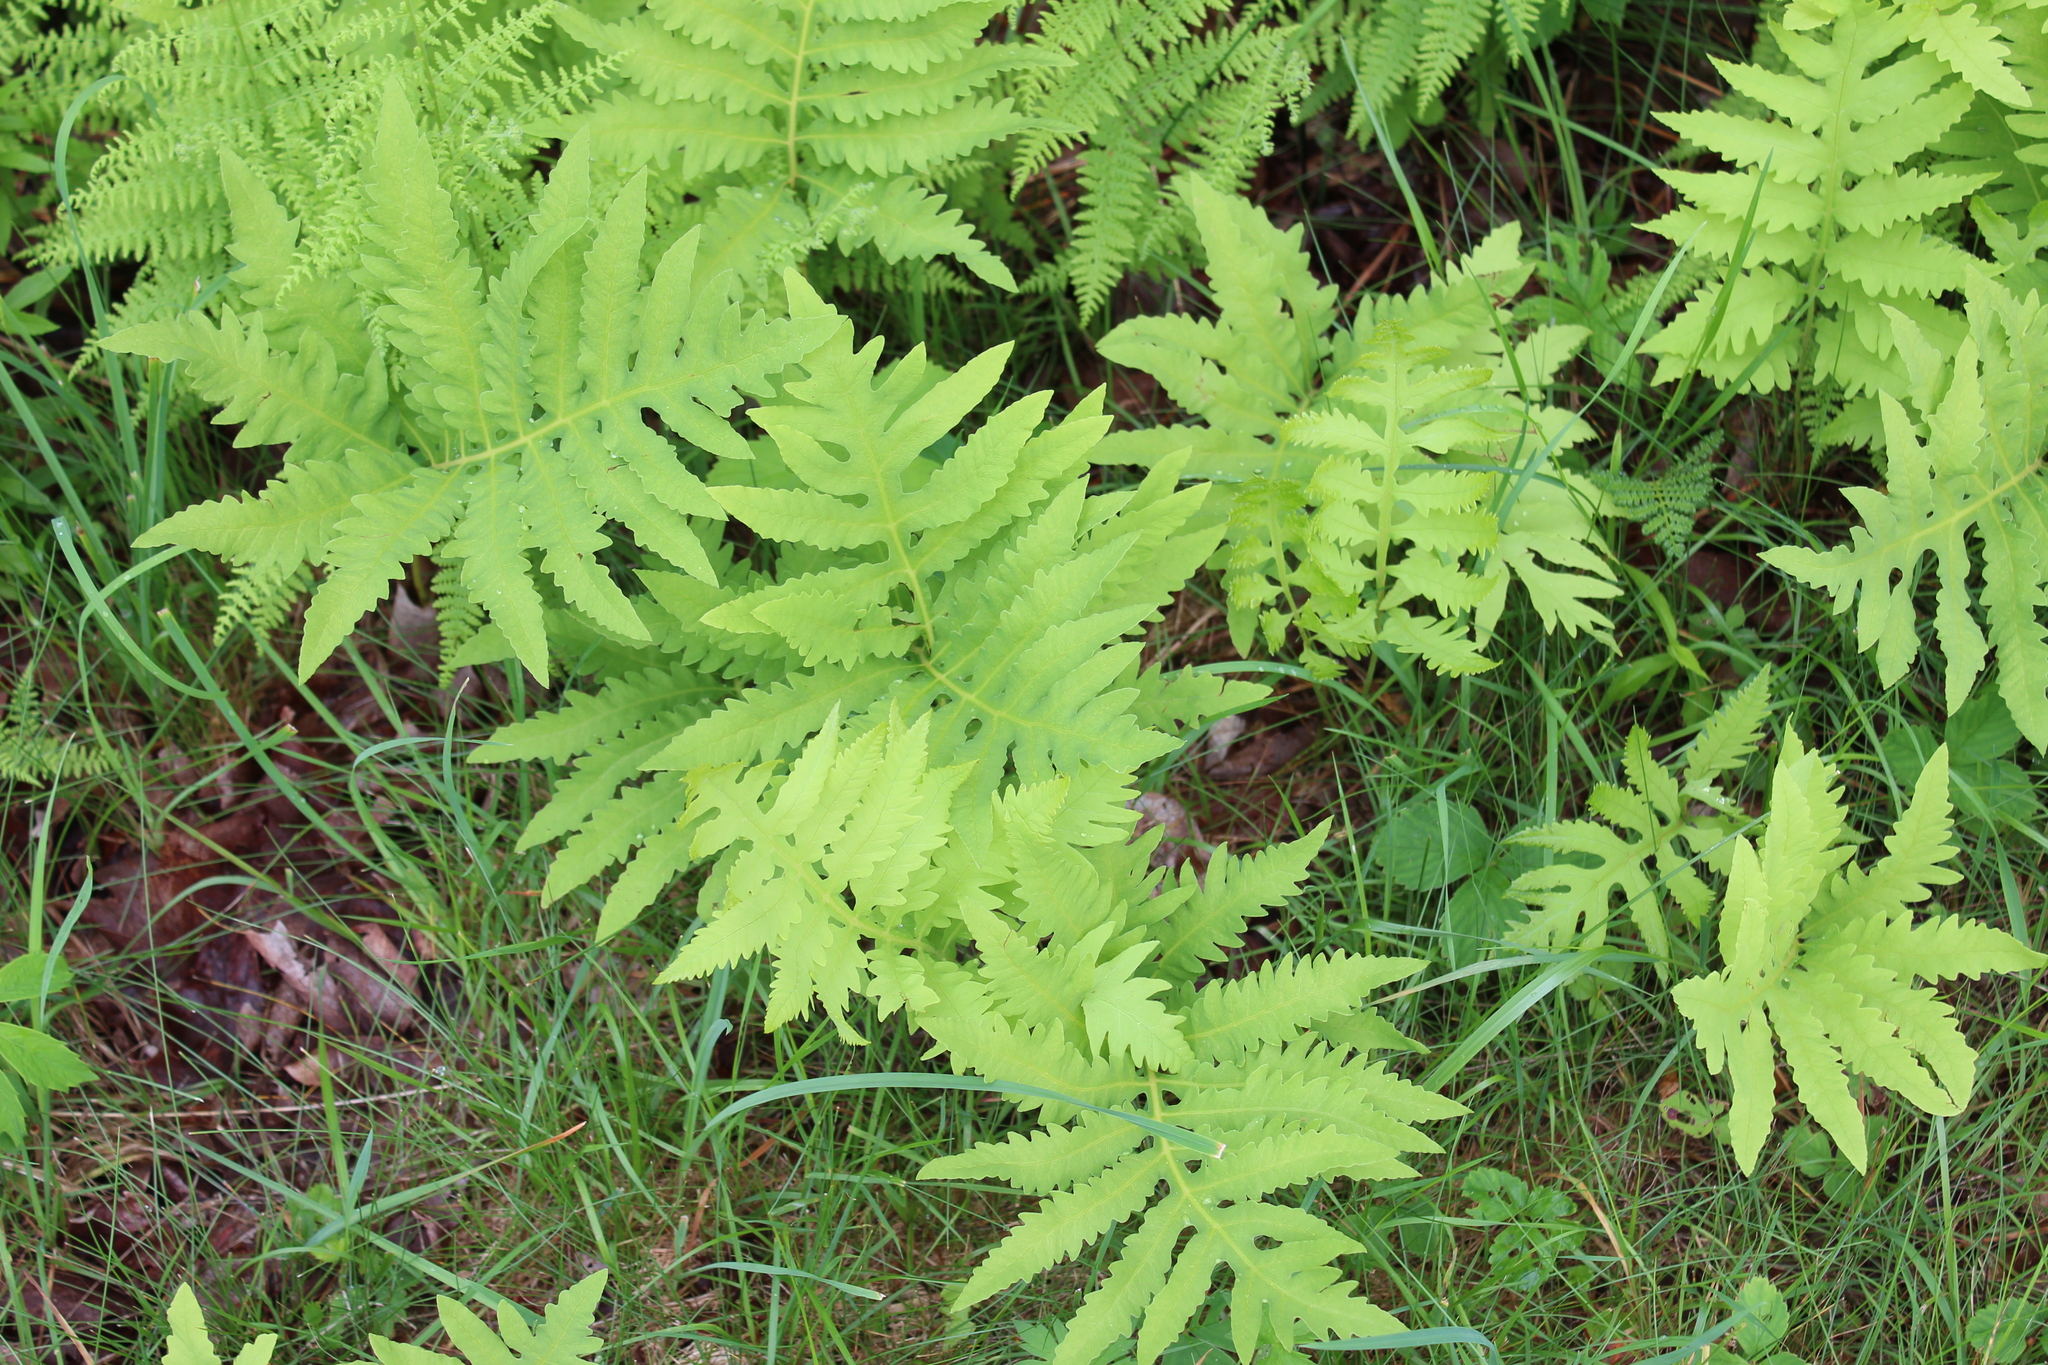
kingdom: Plantae
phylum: Tracheophyta
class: Polypodiopsida
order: Polypodiales
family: Onocleaceae
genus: Onoclea
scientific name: Onoclea sensibilis
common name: Sensitive fern
